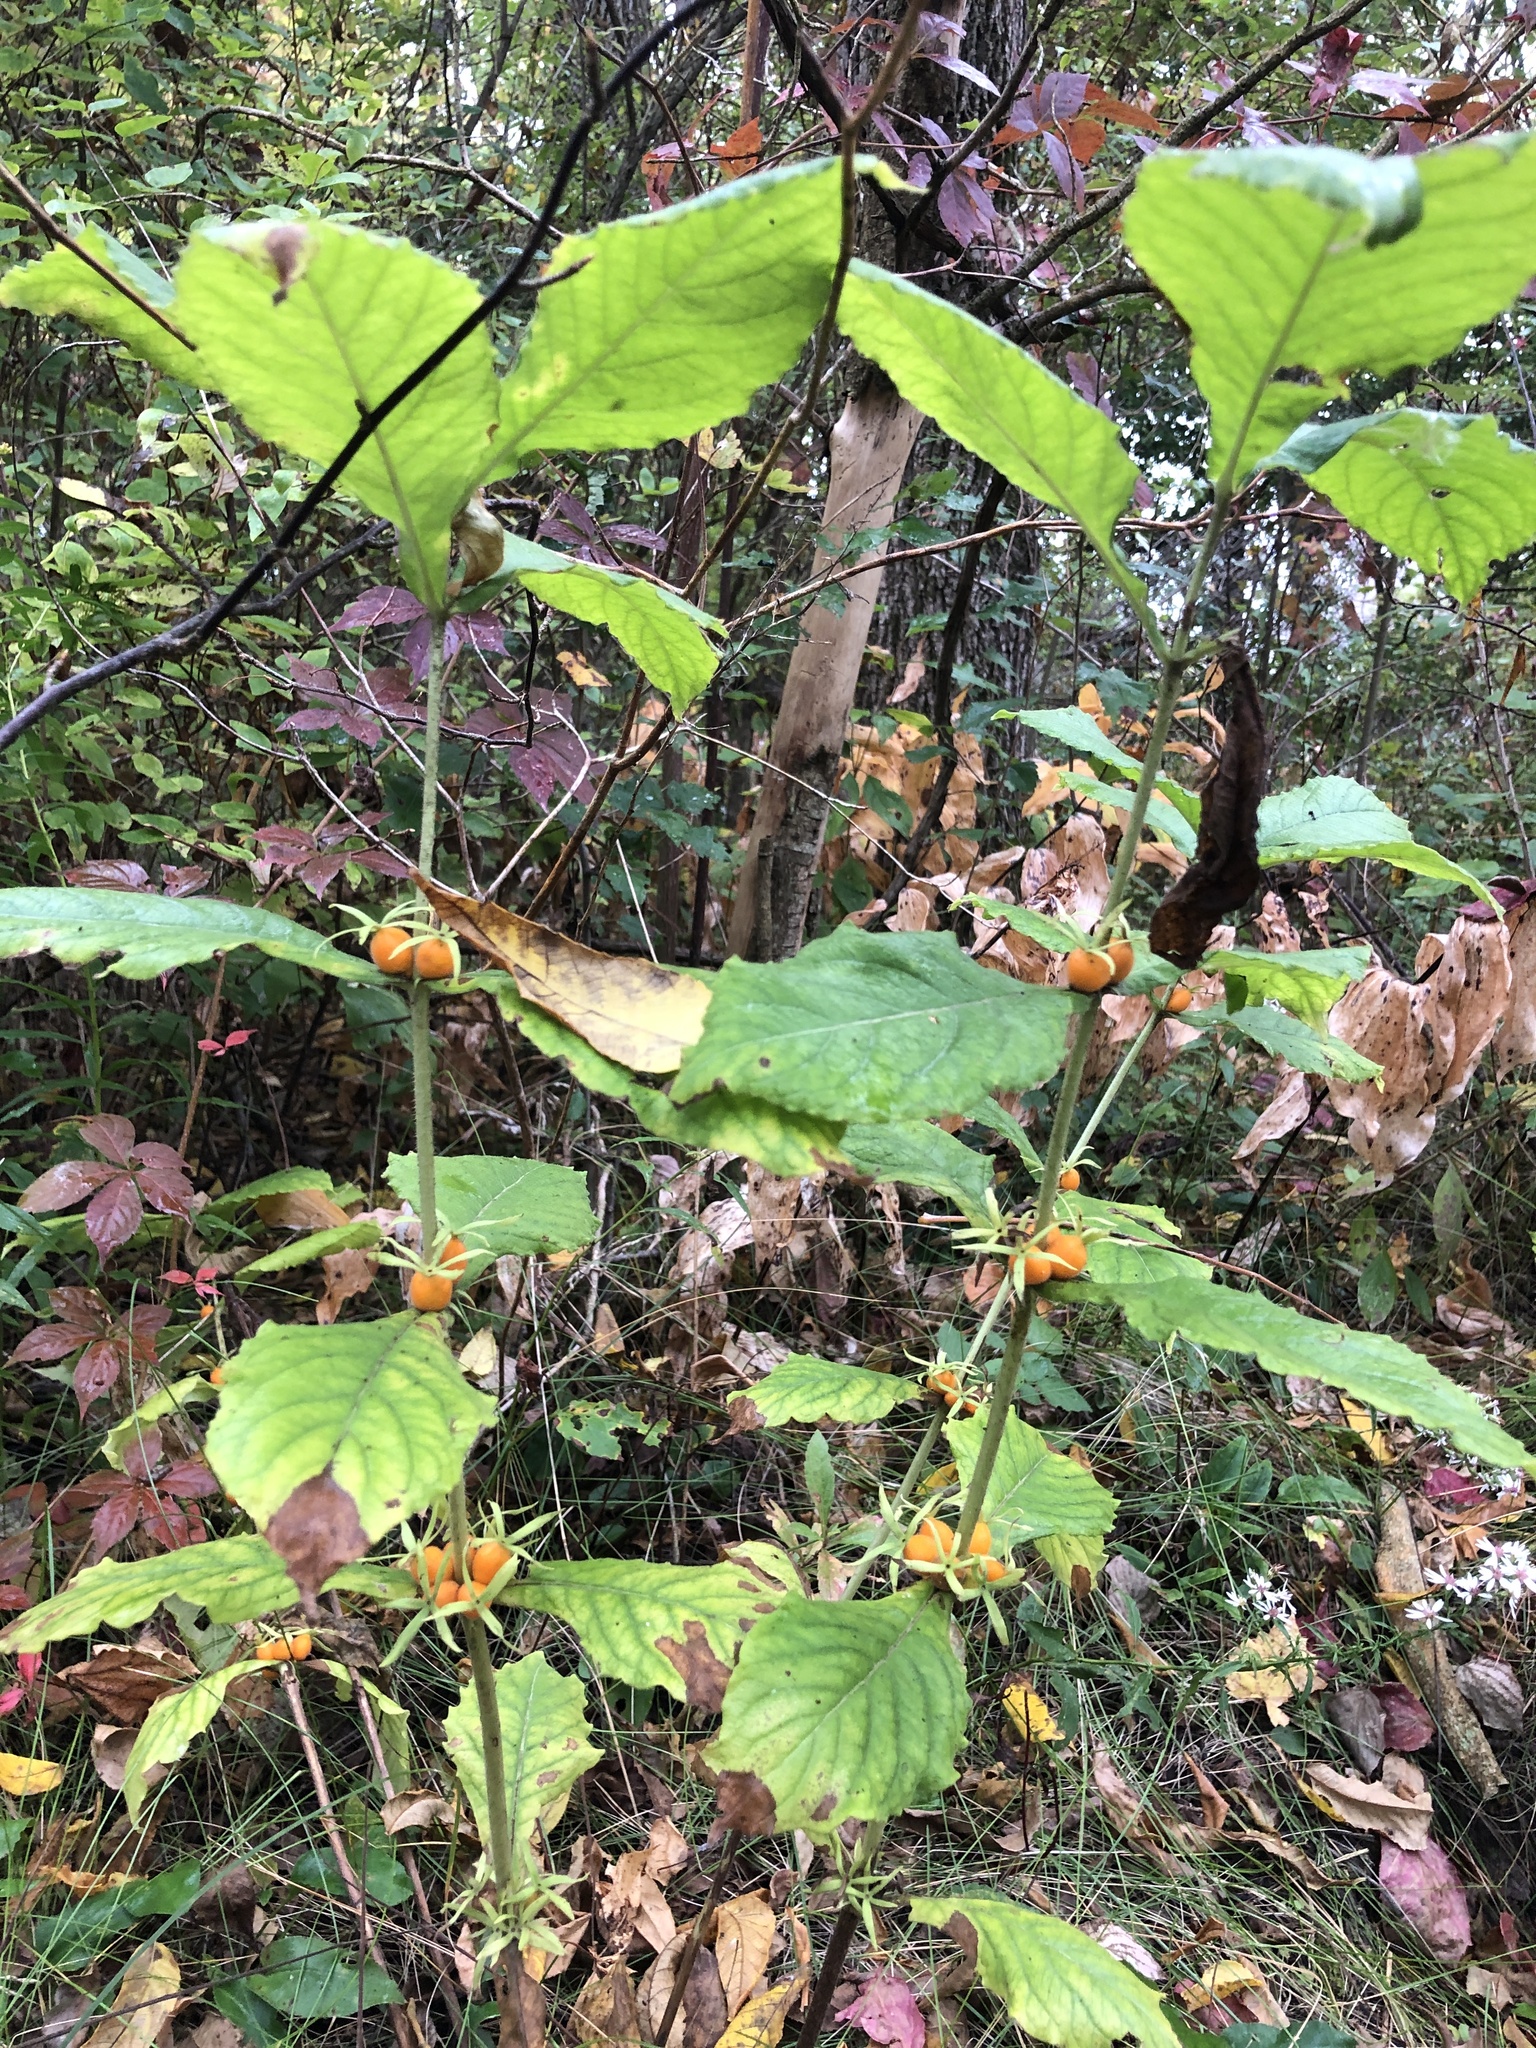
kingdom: Plantae
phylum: Tracheophyta
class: Magnoliopsida
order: Dipsacales
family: Caprifoliaceae
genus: Triosteum
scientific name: Triosteum aurantiacum
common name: Coffee tinker's-weed
